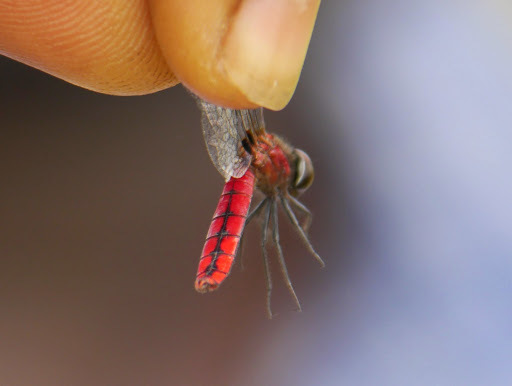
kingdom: Animalia
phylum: Arthropoda
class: Insecta
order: Odonata
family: Libellulidae
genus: Aethriamanta
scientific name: Aethriamanta rezia
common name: Pygmy basker
